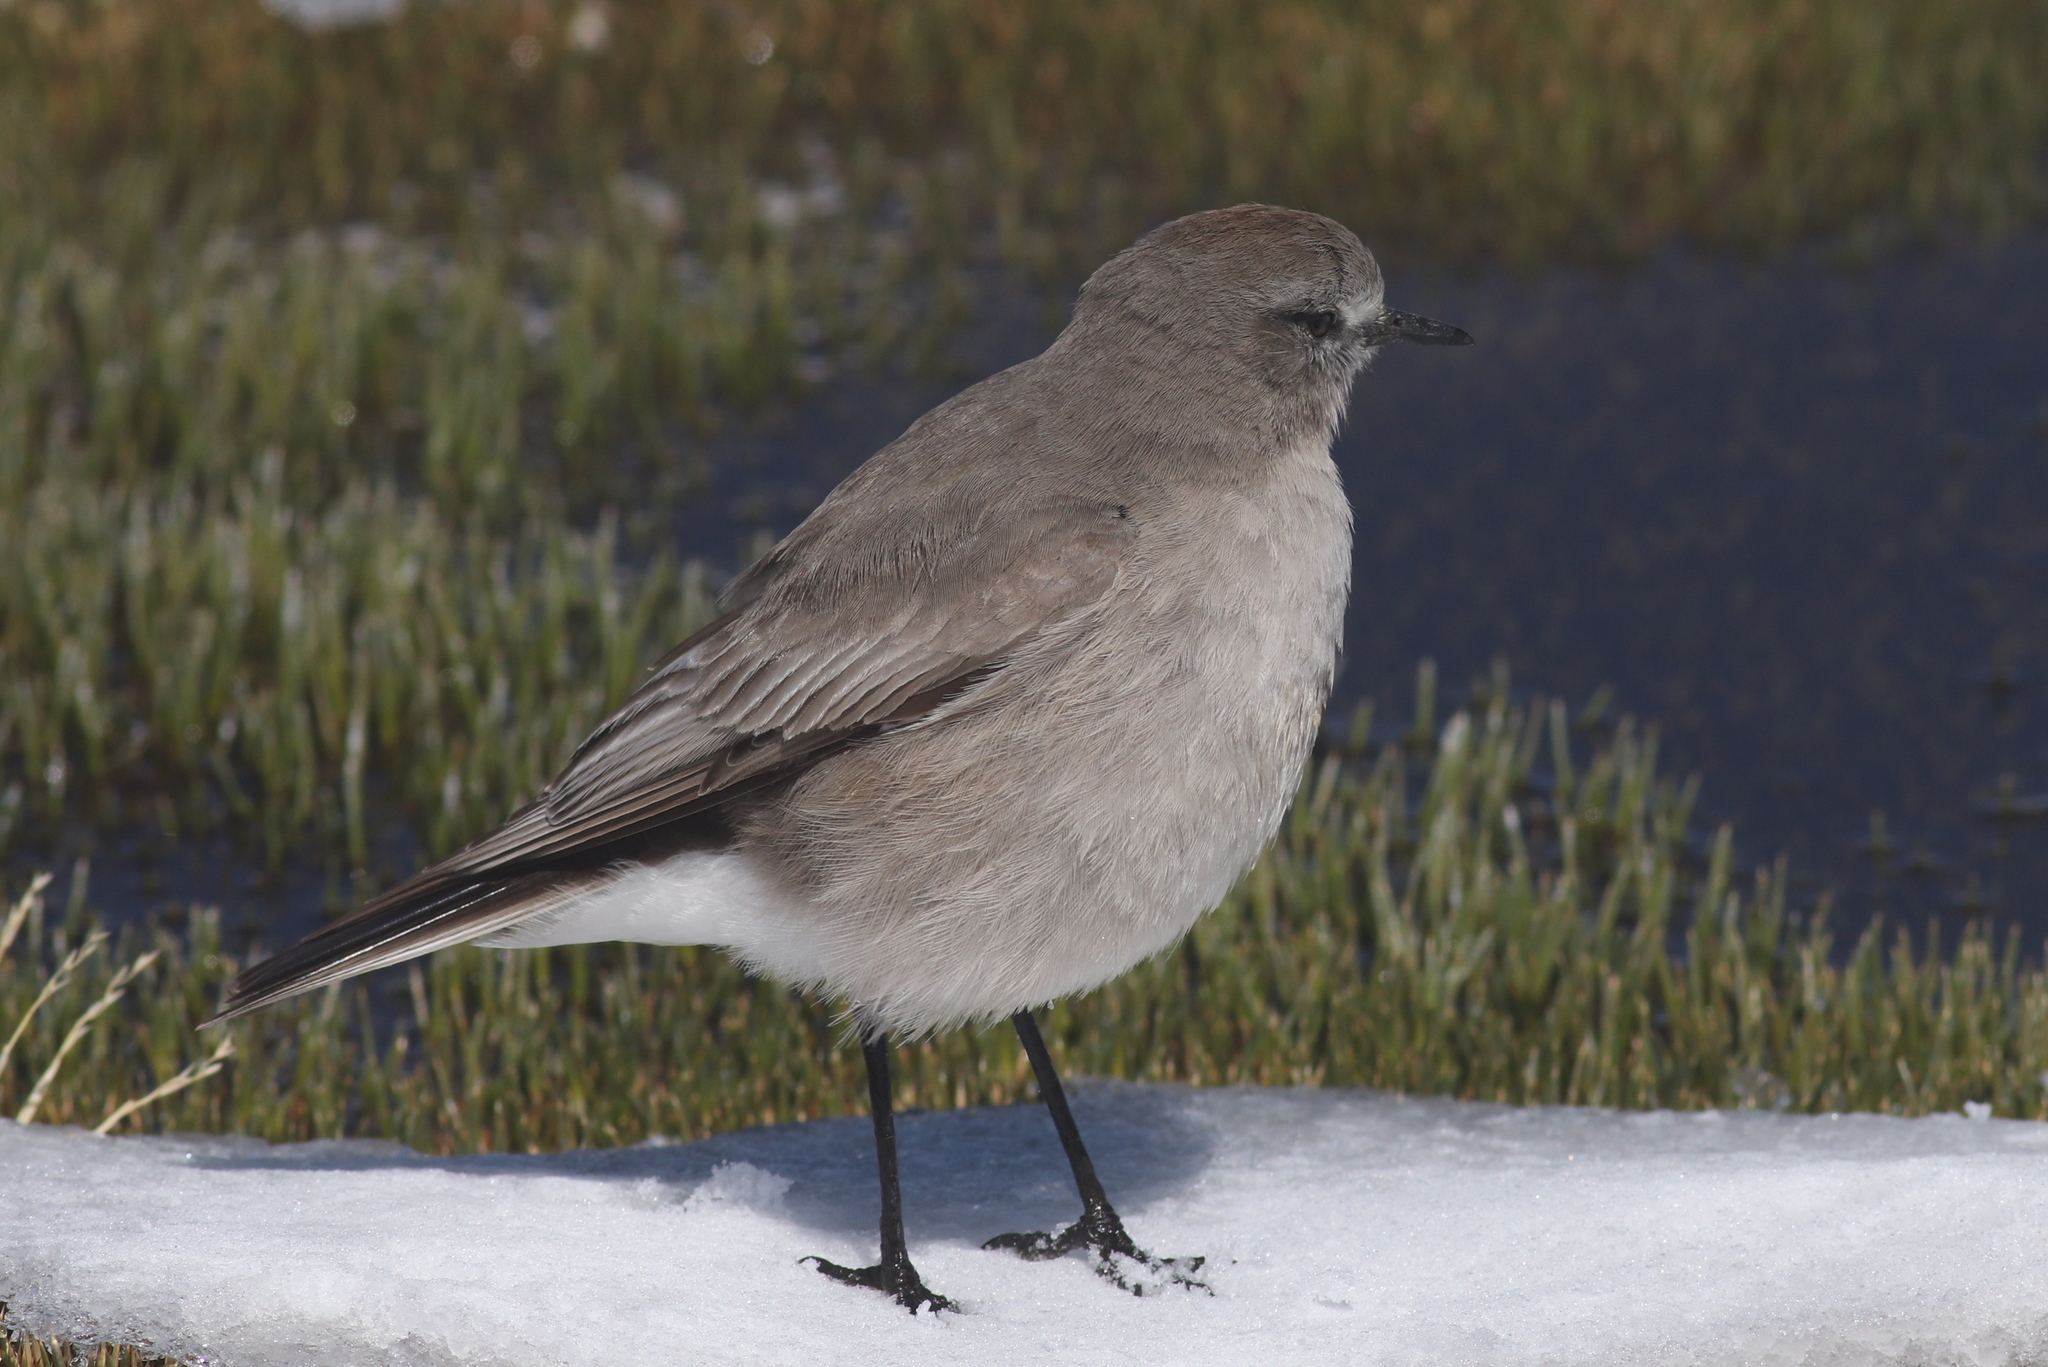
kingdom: Animalia
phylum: Chordata
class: Aves
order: Passeriformes
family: Tyrannidae
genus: Muscisaxicola
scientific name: Muscisaxicola albifrons
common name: White-fronted ground tyrant
